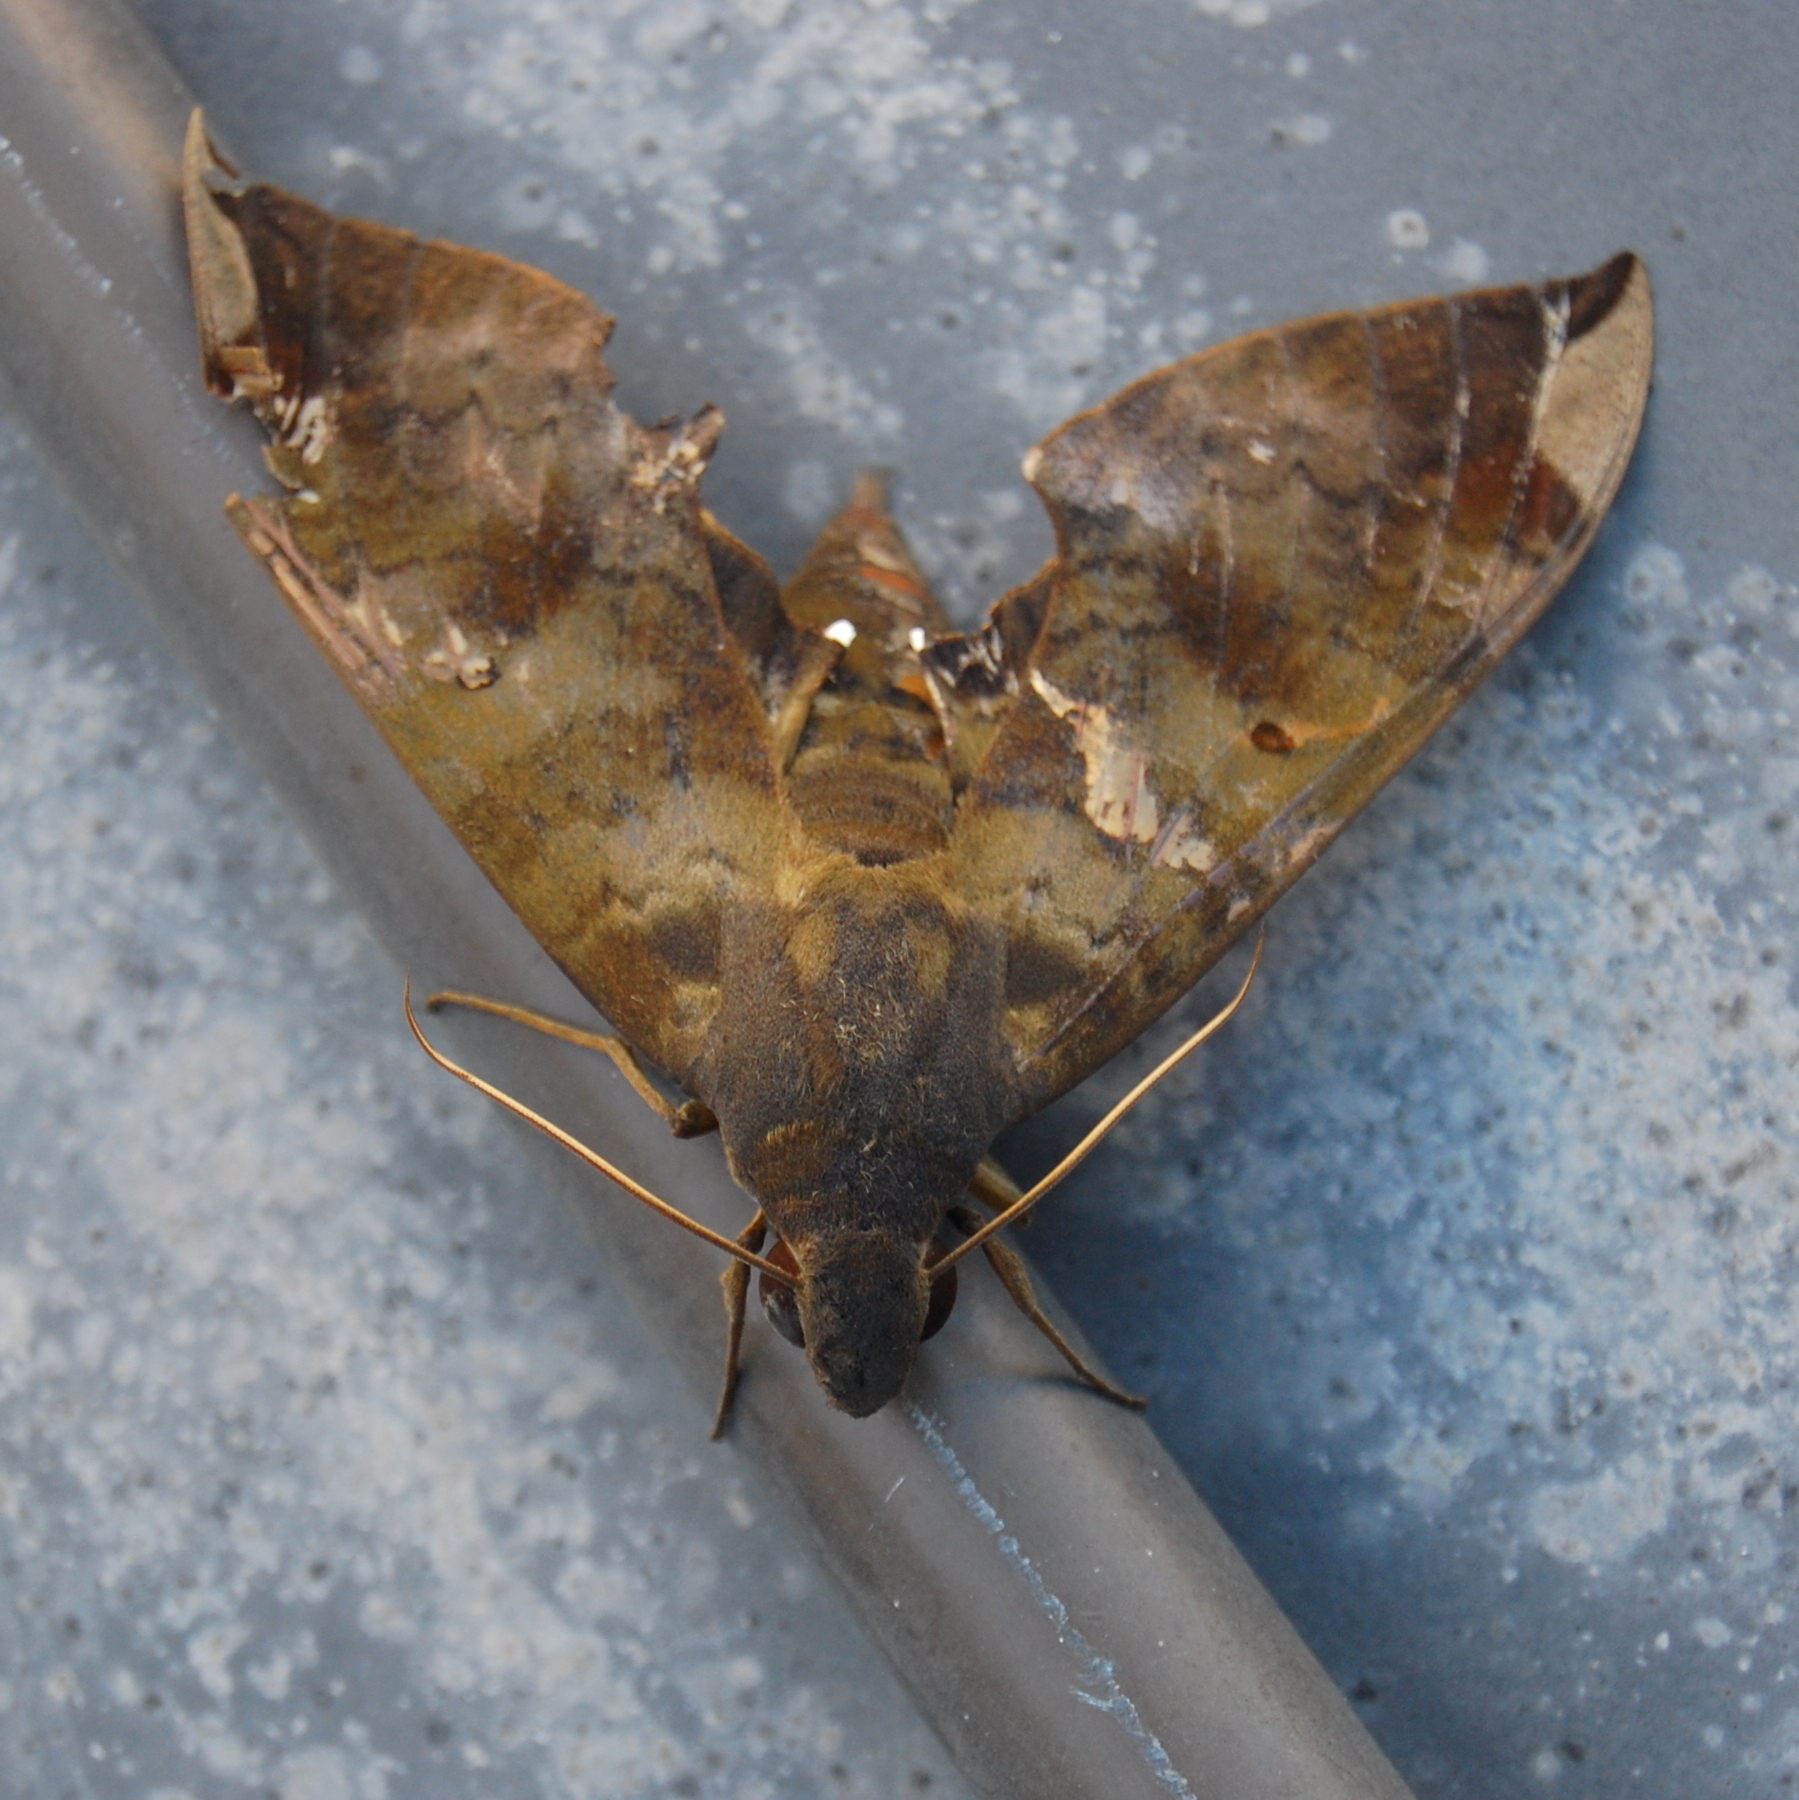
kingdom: Animalia
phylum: Arthropoda
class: Insecta
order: Lepidoptera
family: Sphingidae
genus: Pachylia
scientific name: Pachylia ficus
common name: Fig sphinx
